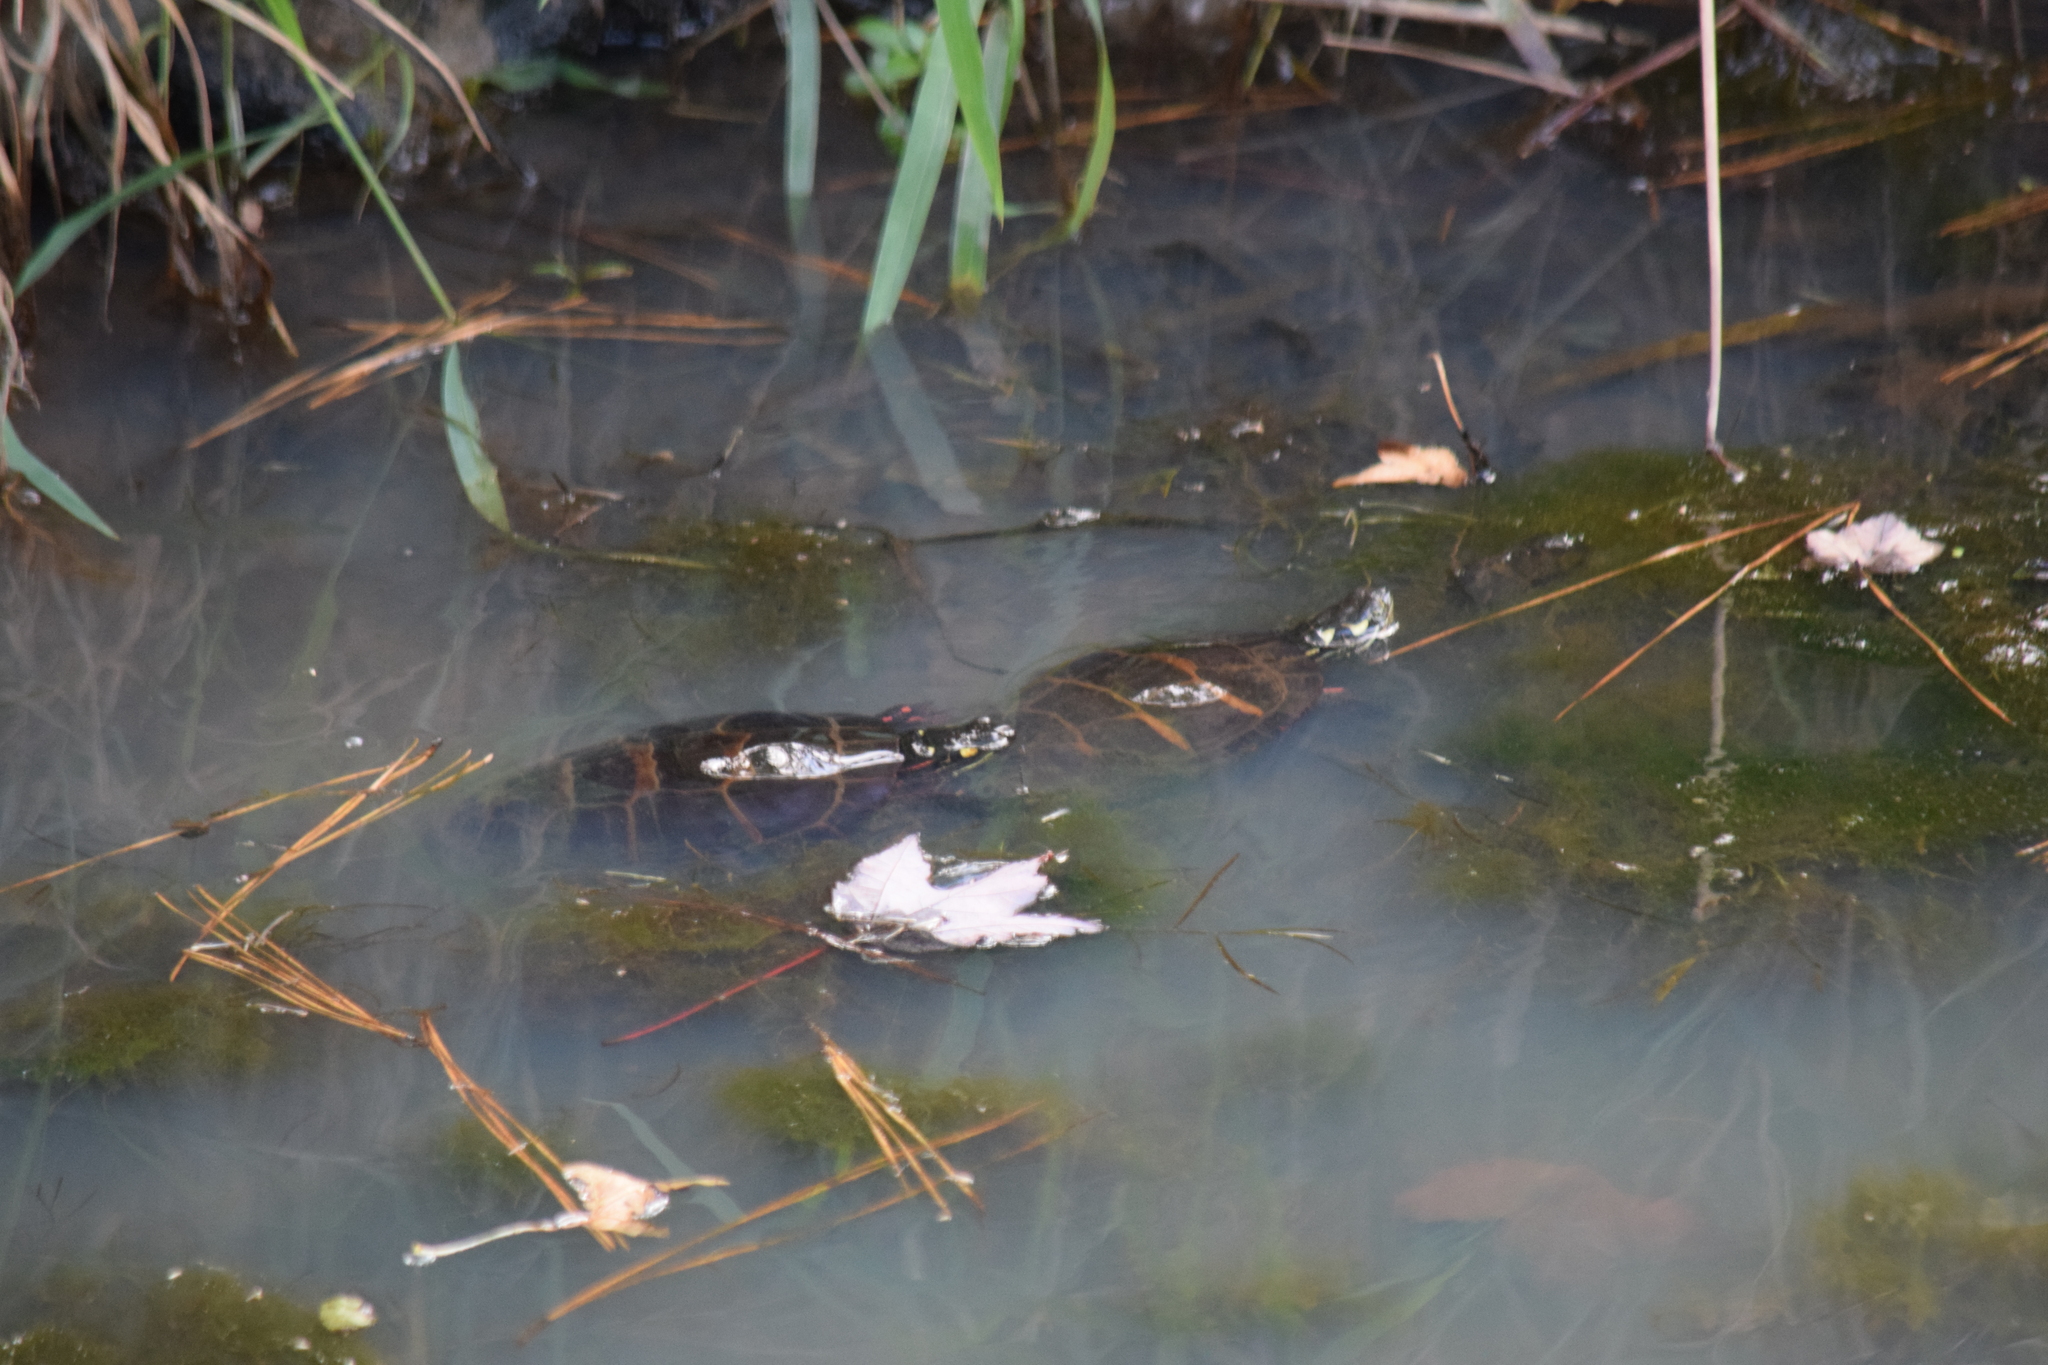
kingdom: Animalia
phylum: Chordata
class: Testudines
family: Emydidae
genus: Chrysemys
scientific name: Chrysemys picta
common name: Painted turtle
